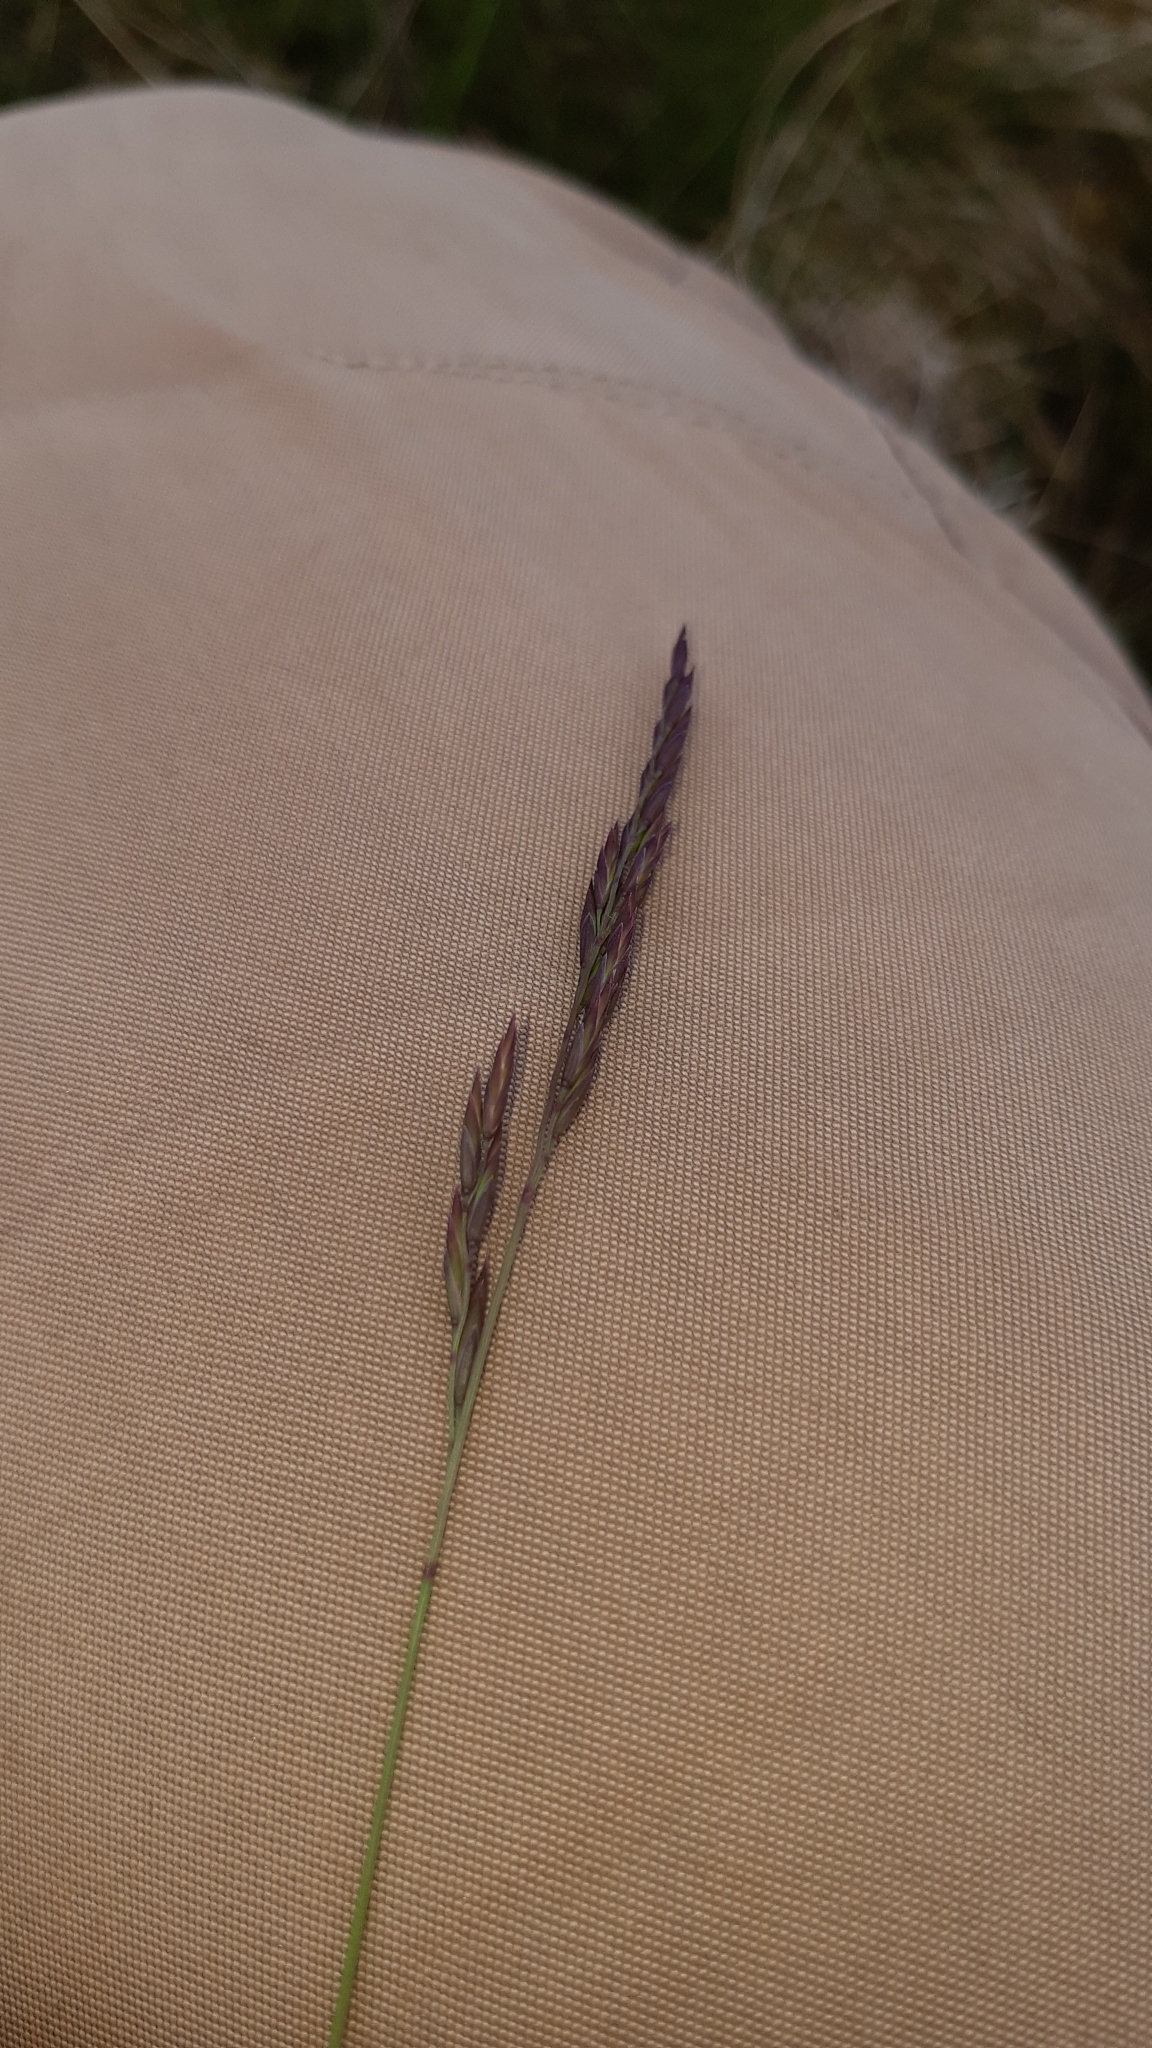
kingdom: Plantae
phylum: Tracheophyta
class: Liliopsida
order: Poales
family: Poaceae
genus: Festuca
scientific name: Festuca rubra
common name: Red fescue
